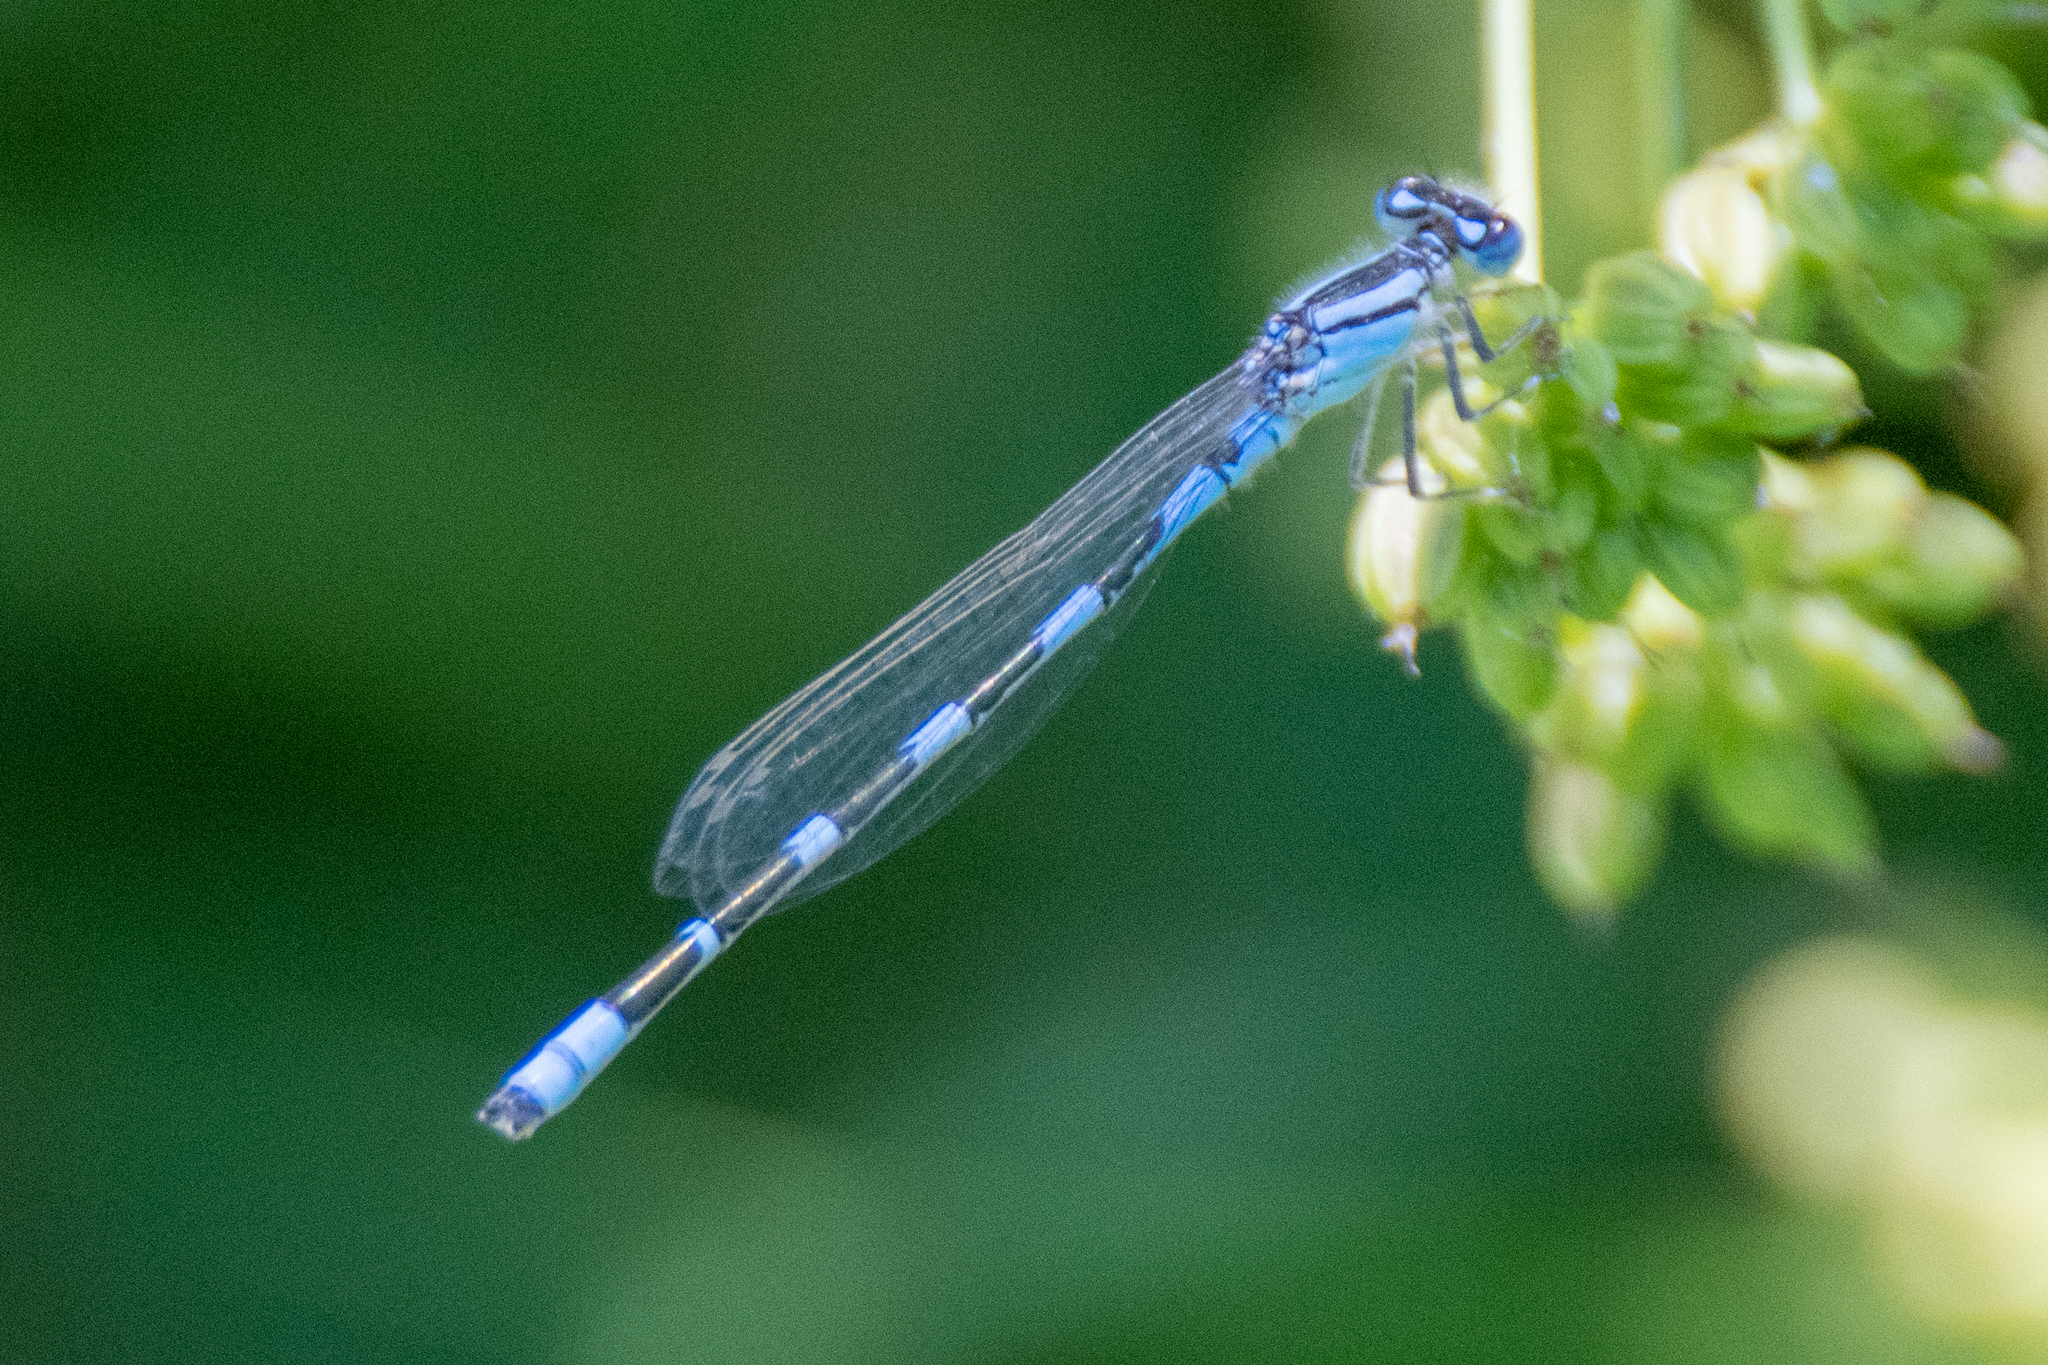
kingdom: Animalia
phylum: Arthropoda
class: Insecta
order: Odonata
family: Coenagrionidae
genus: Enallagma
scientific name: Enallagma carunculatum
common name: Tule bluet
